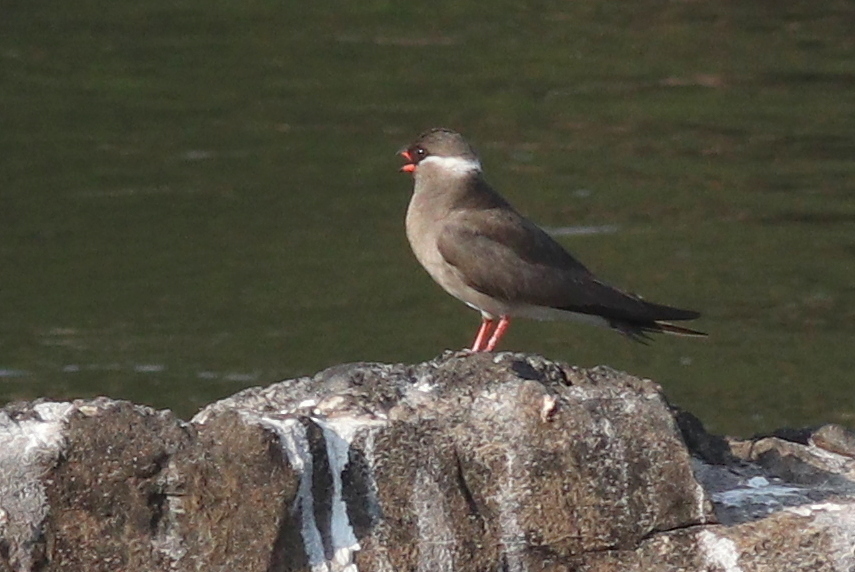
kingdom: Animalia
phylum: Chordata
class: Aves
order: Charadriiformes
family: Glareolidae
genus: Glareola
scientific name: Glareola nuchalis
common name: Rock pratincole
